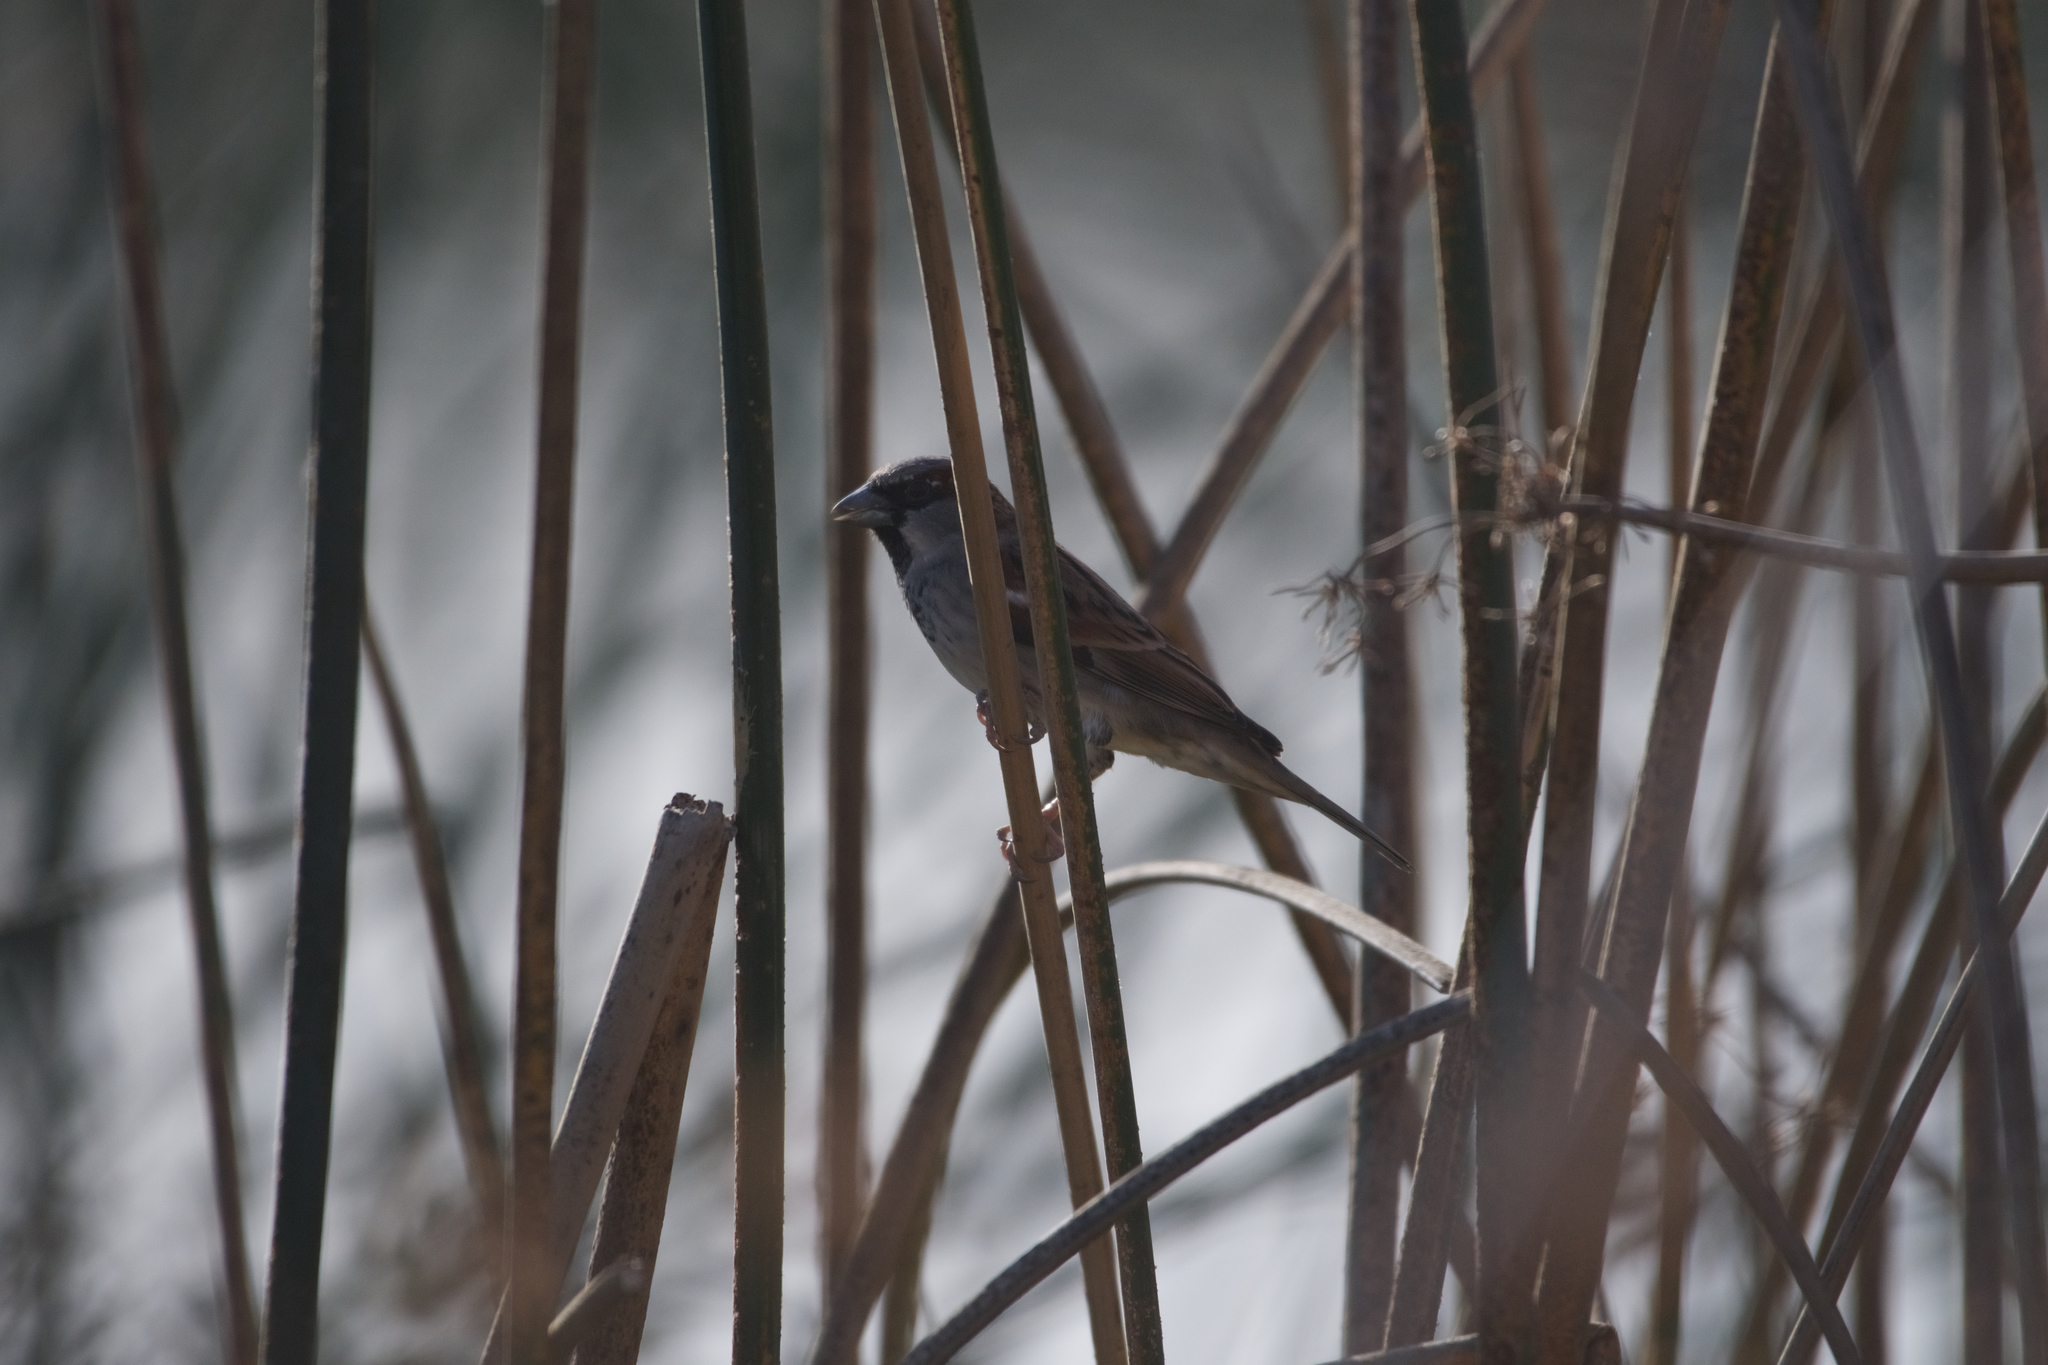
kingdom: Animalia
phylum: Chordata
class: Aves
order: Passeriformes
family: Passeridae
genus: Passer
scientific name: Passer domesticus
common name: House sparrow
